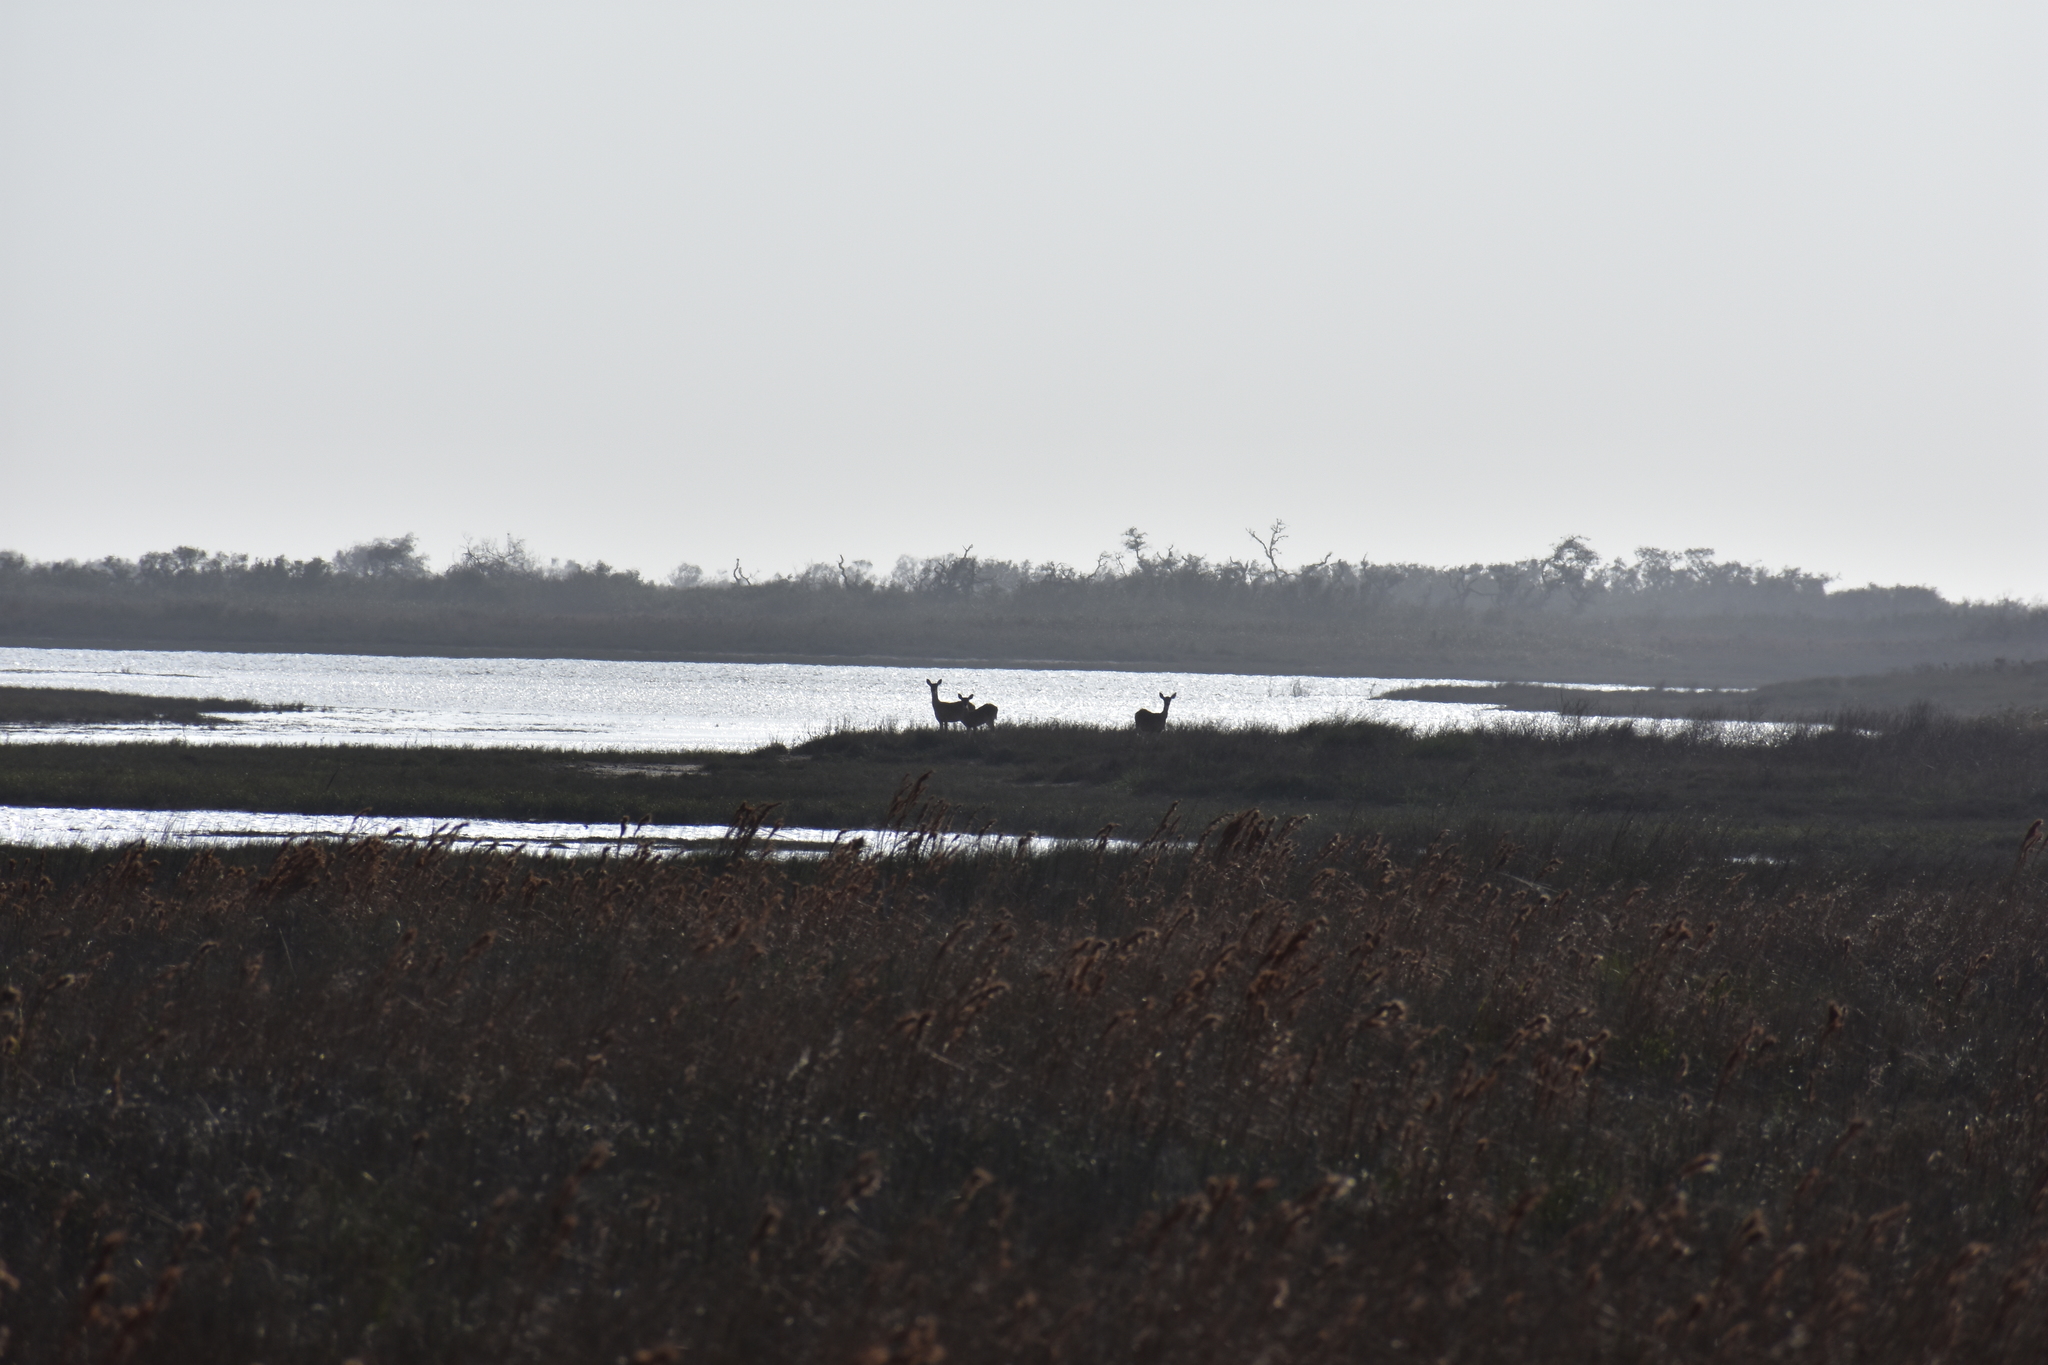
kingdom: Animalia
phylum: Chordata
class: Mammalia
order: Artiodactyla
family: Cervidae
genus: Odocoileus
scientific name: Odocoileus virginianus
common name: White-tailed deer
